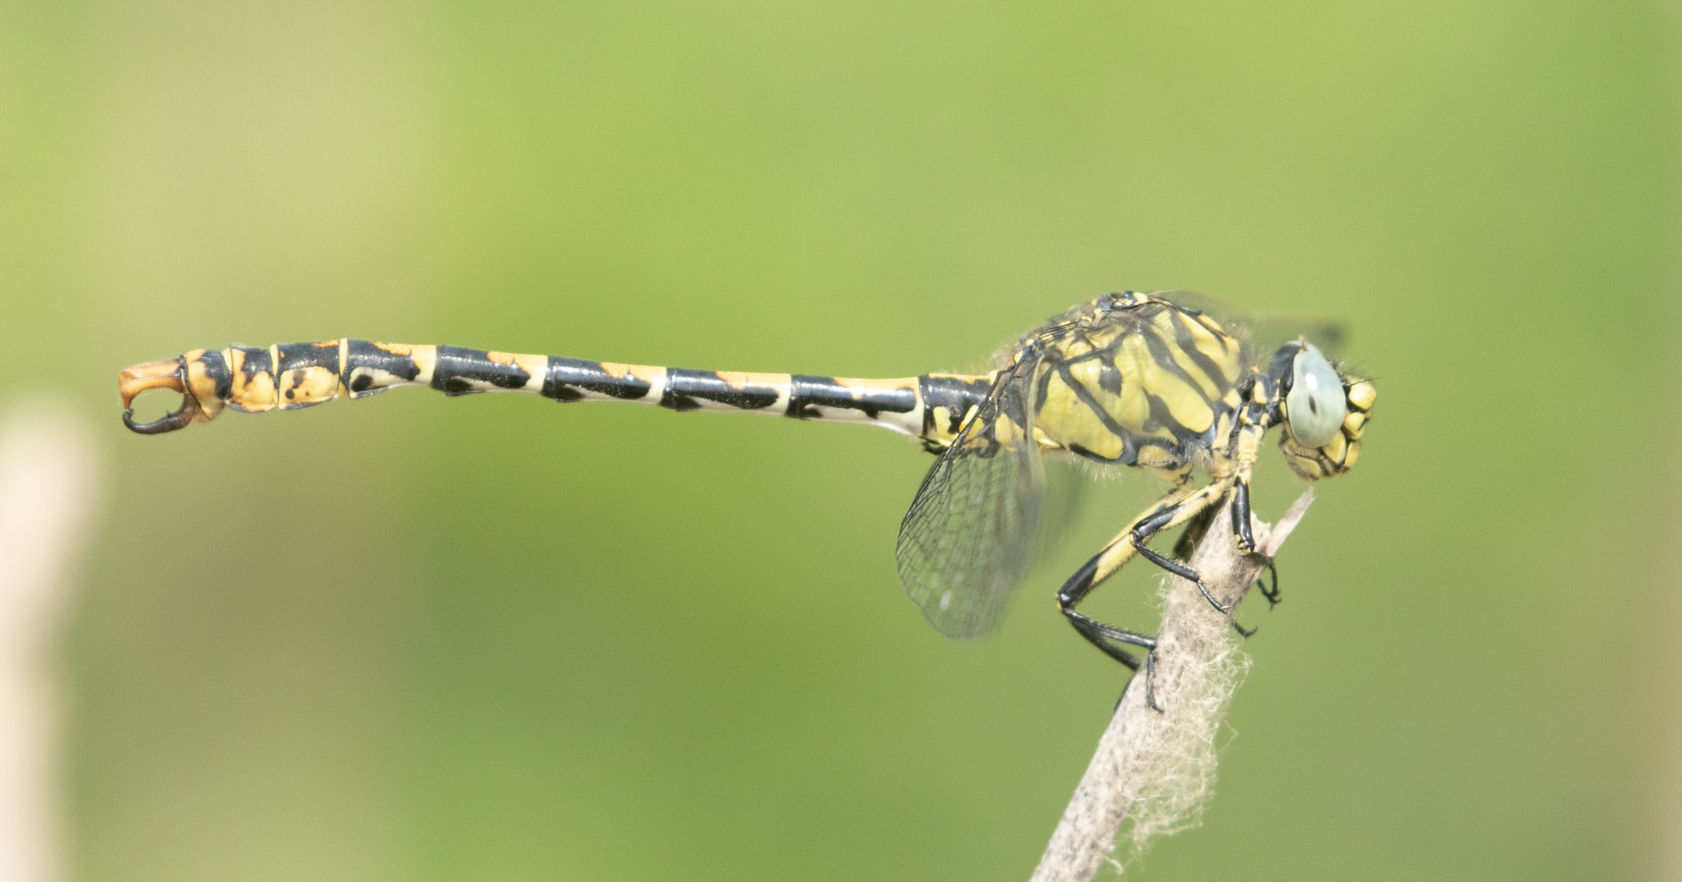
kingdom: Animalia
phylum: Arthropoda
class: Insecta
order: Odonata
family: Gomphidae
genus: Onychogomphus
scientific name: Onychogomphus forcipatus
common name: Small pincertail
